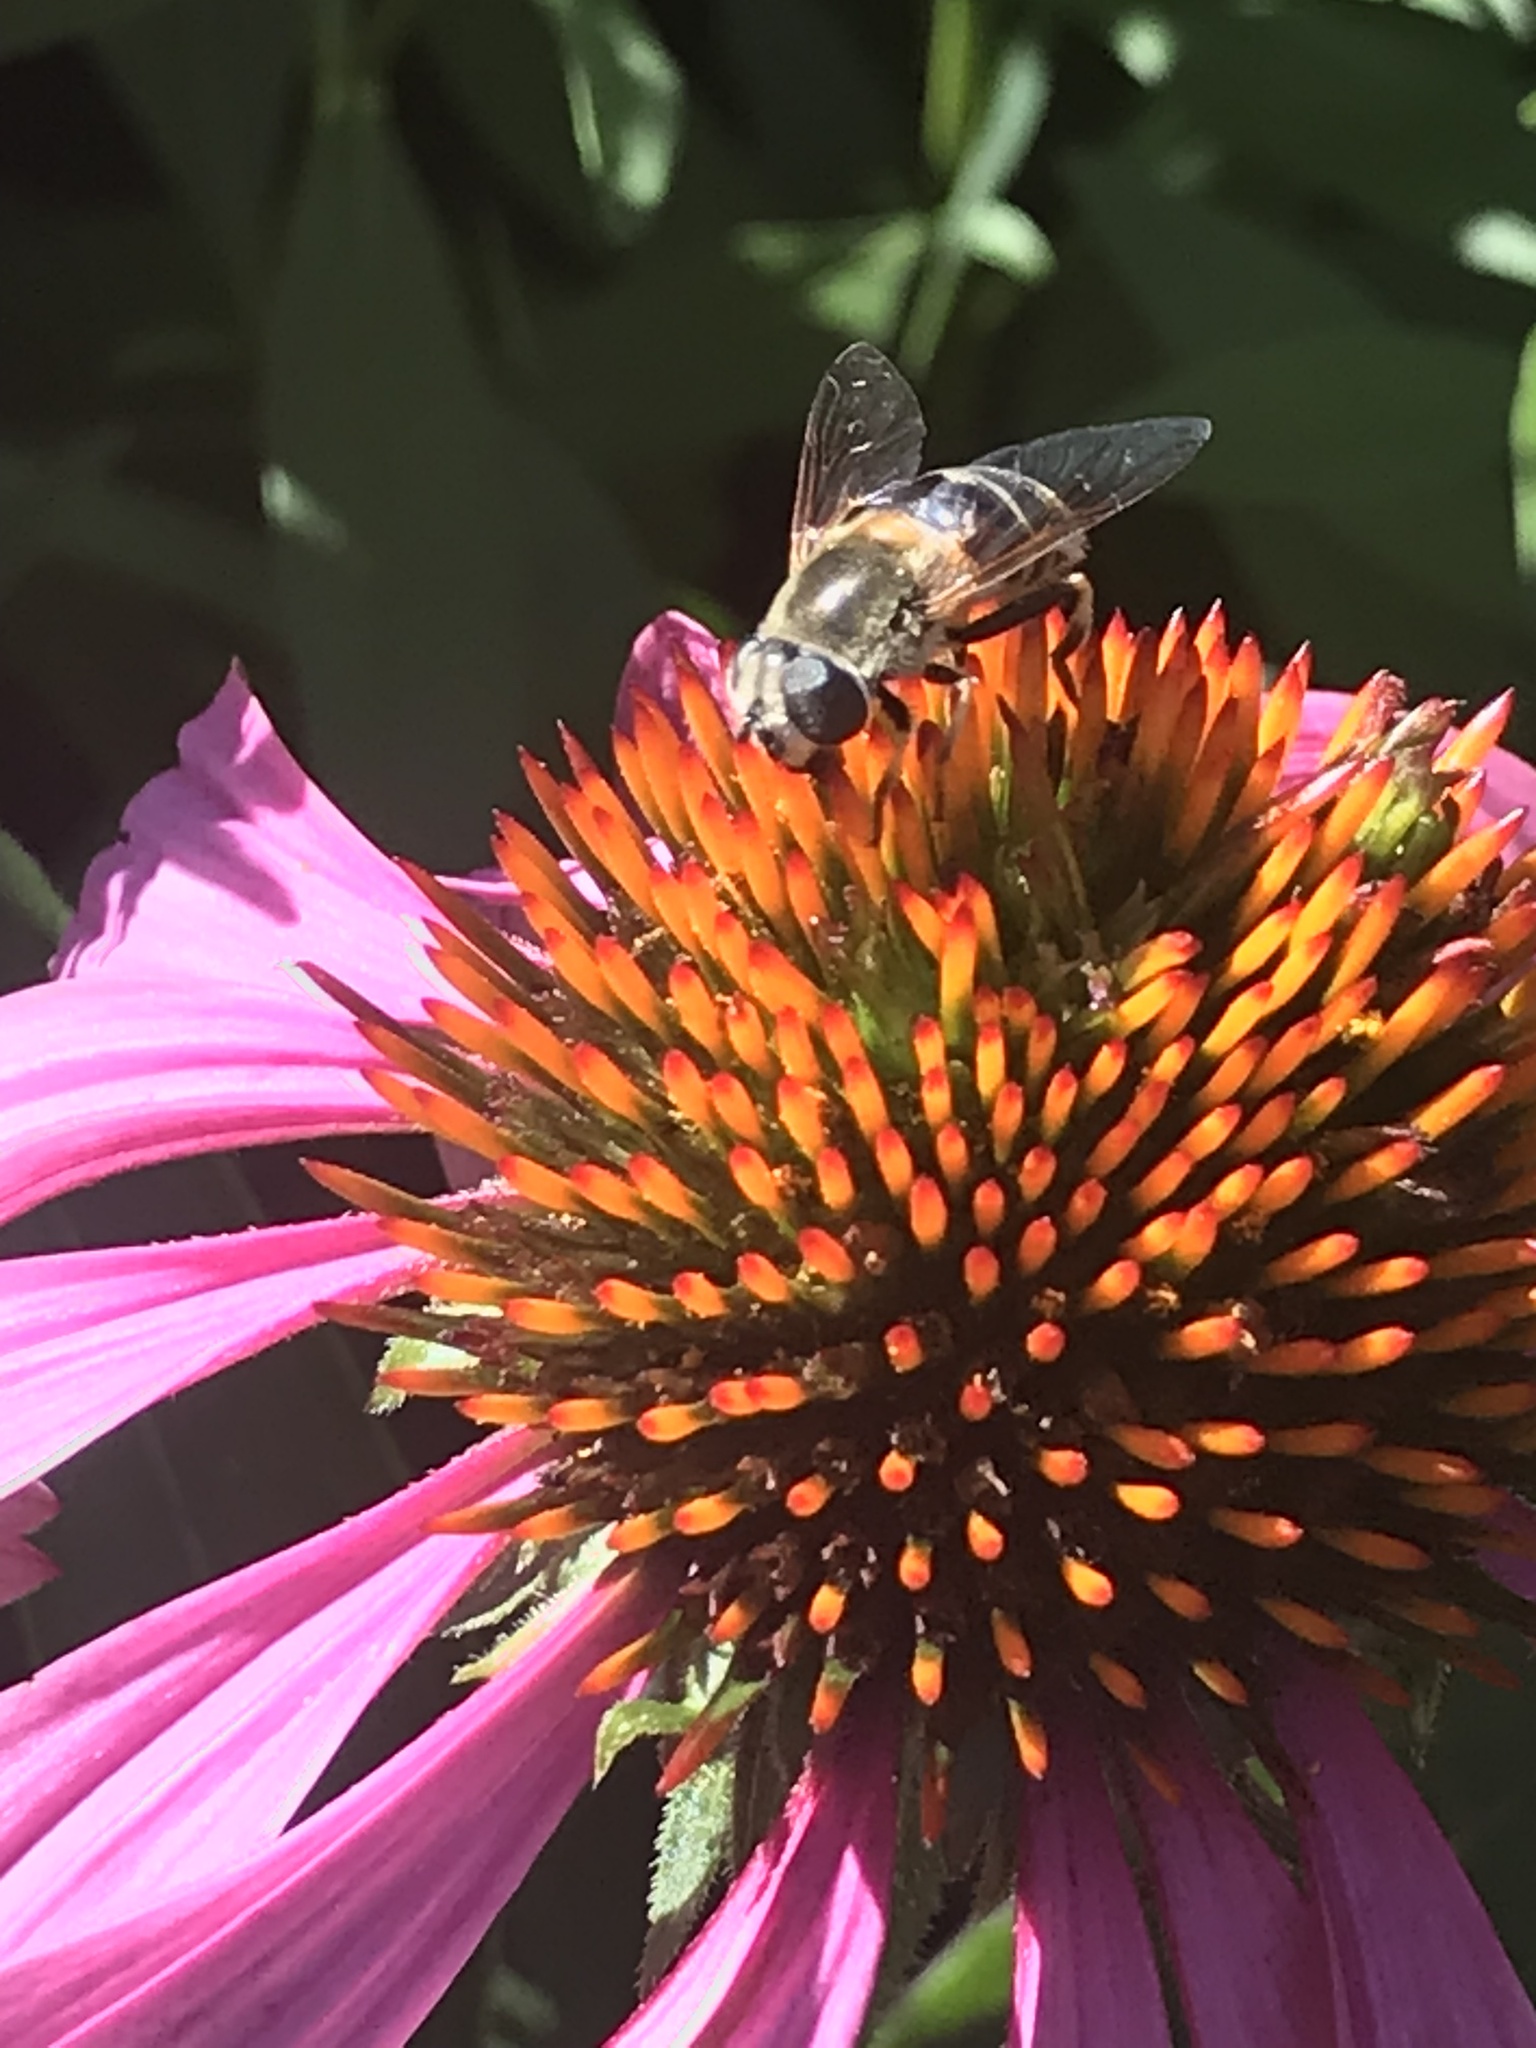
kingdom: Animalia
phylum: Arthropoda
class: Insecta
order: Diptera
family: Syrphidae
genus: Eristalis
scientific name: Eristalis stipator
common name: Yellow-shouldered drone fly
